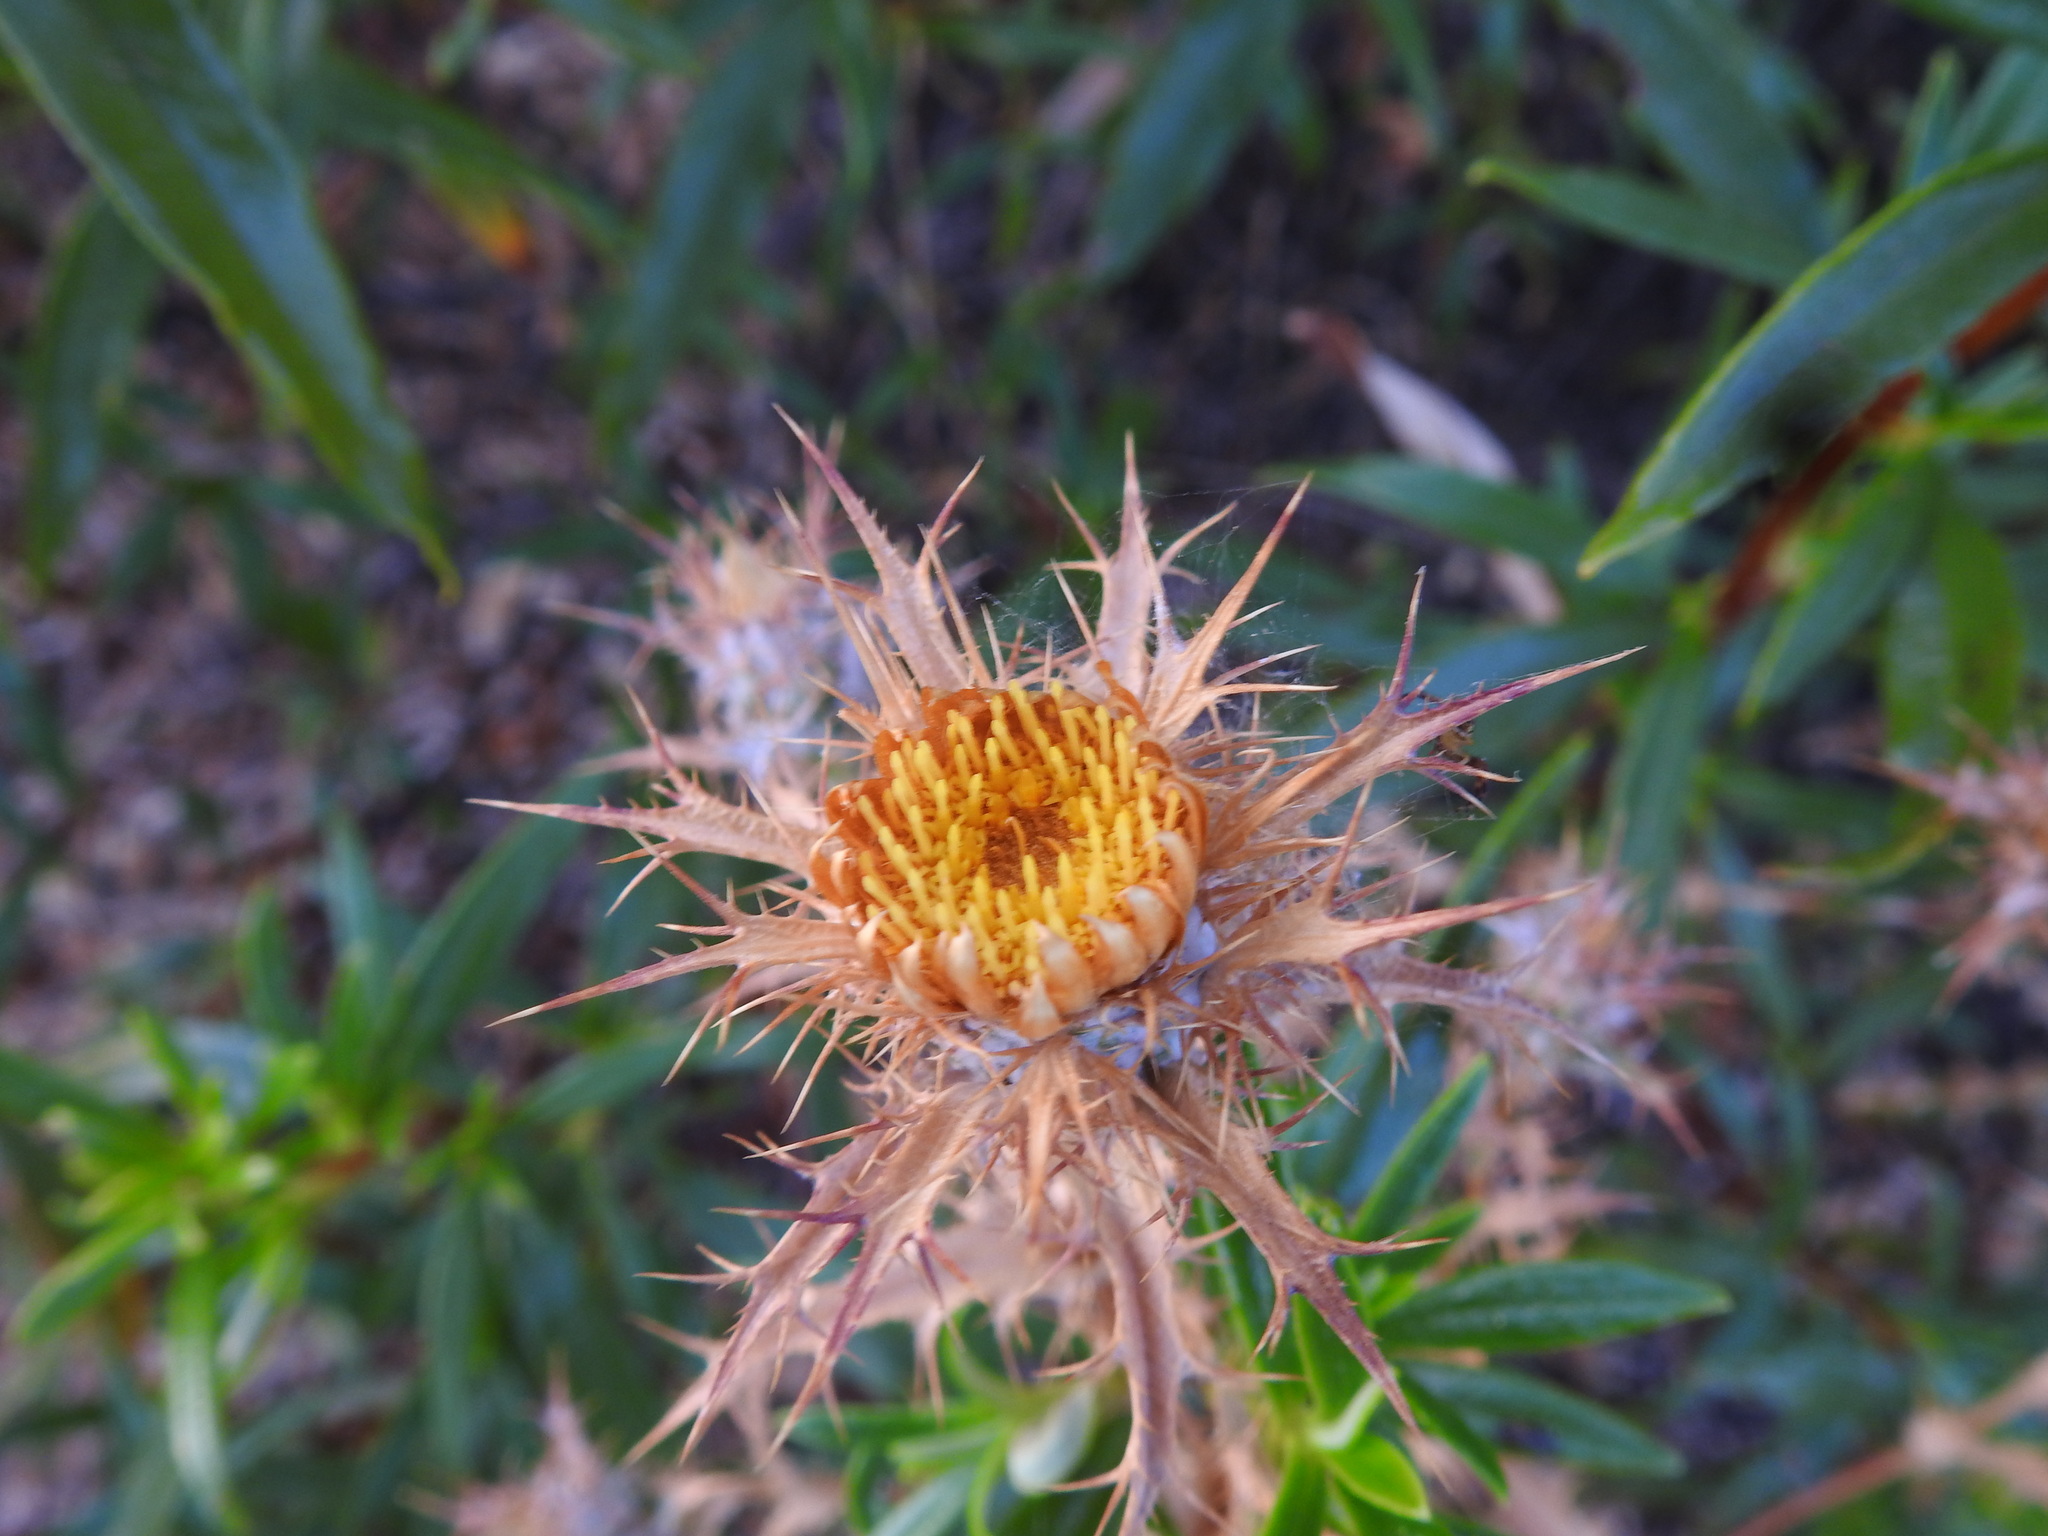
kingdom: Plantae
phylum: Tracheophyta
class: Magnoliopsida
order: Asterales
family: Asteraceae
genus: Carlina
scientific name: Carlina hispanica
